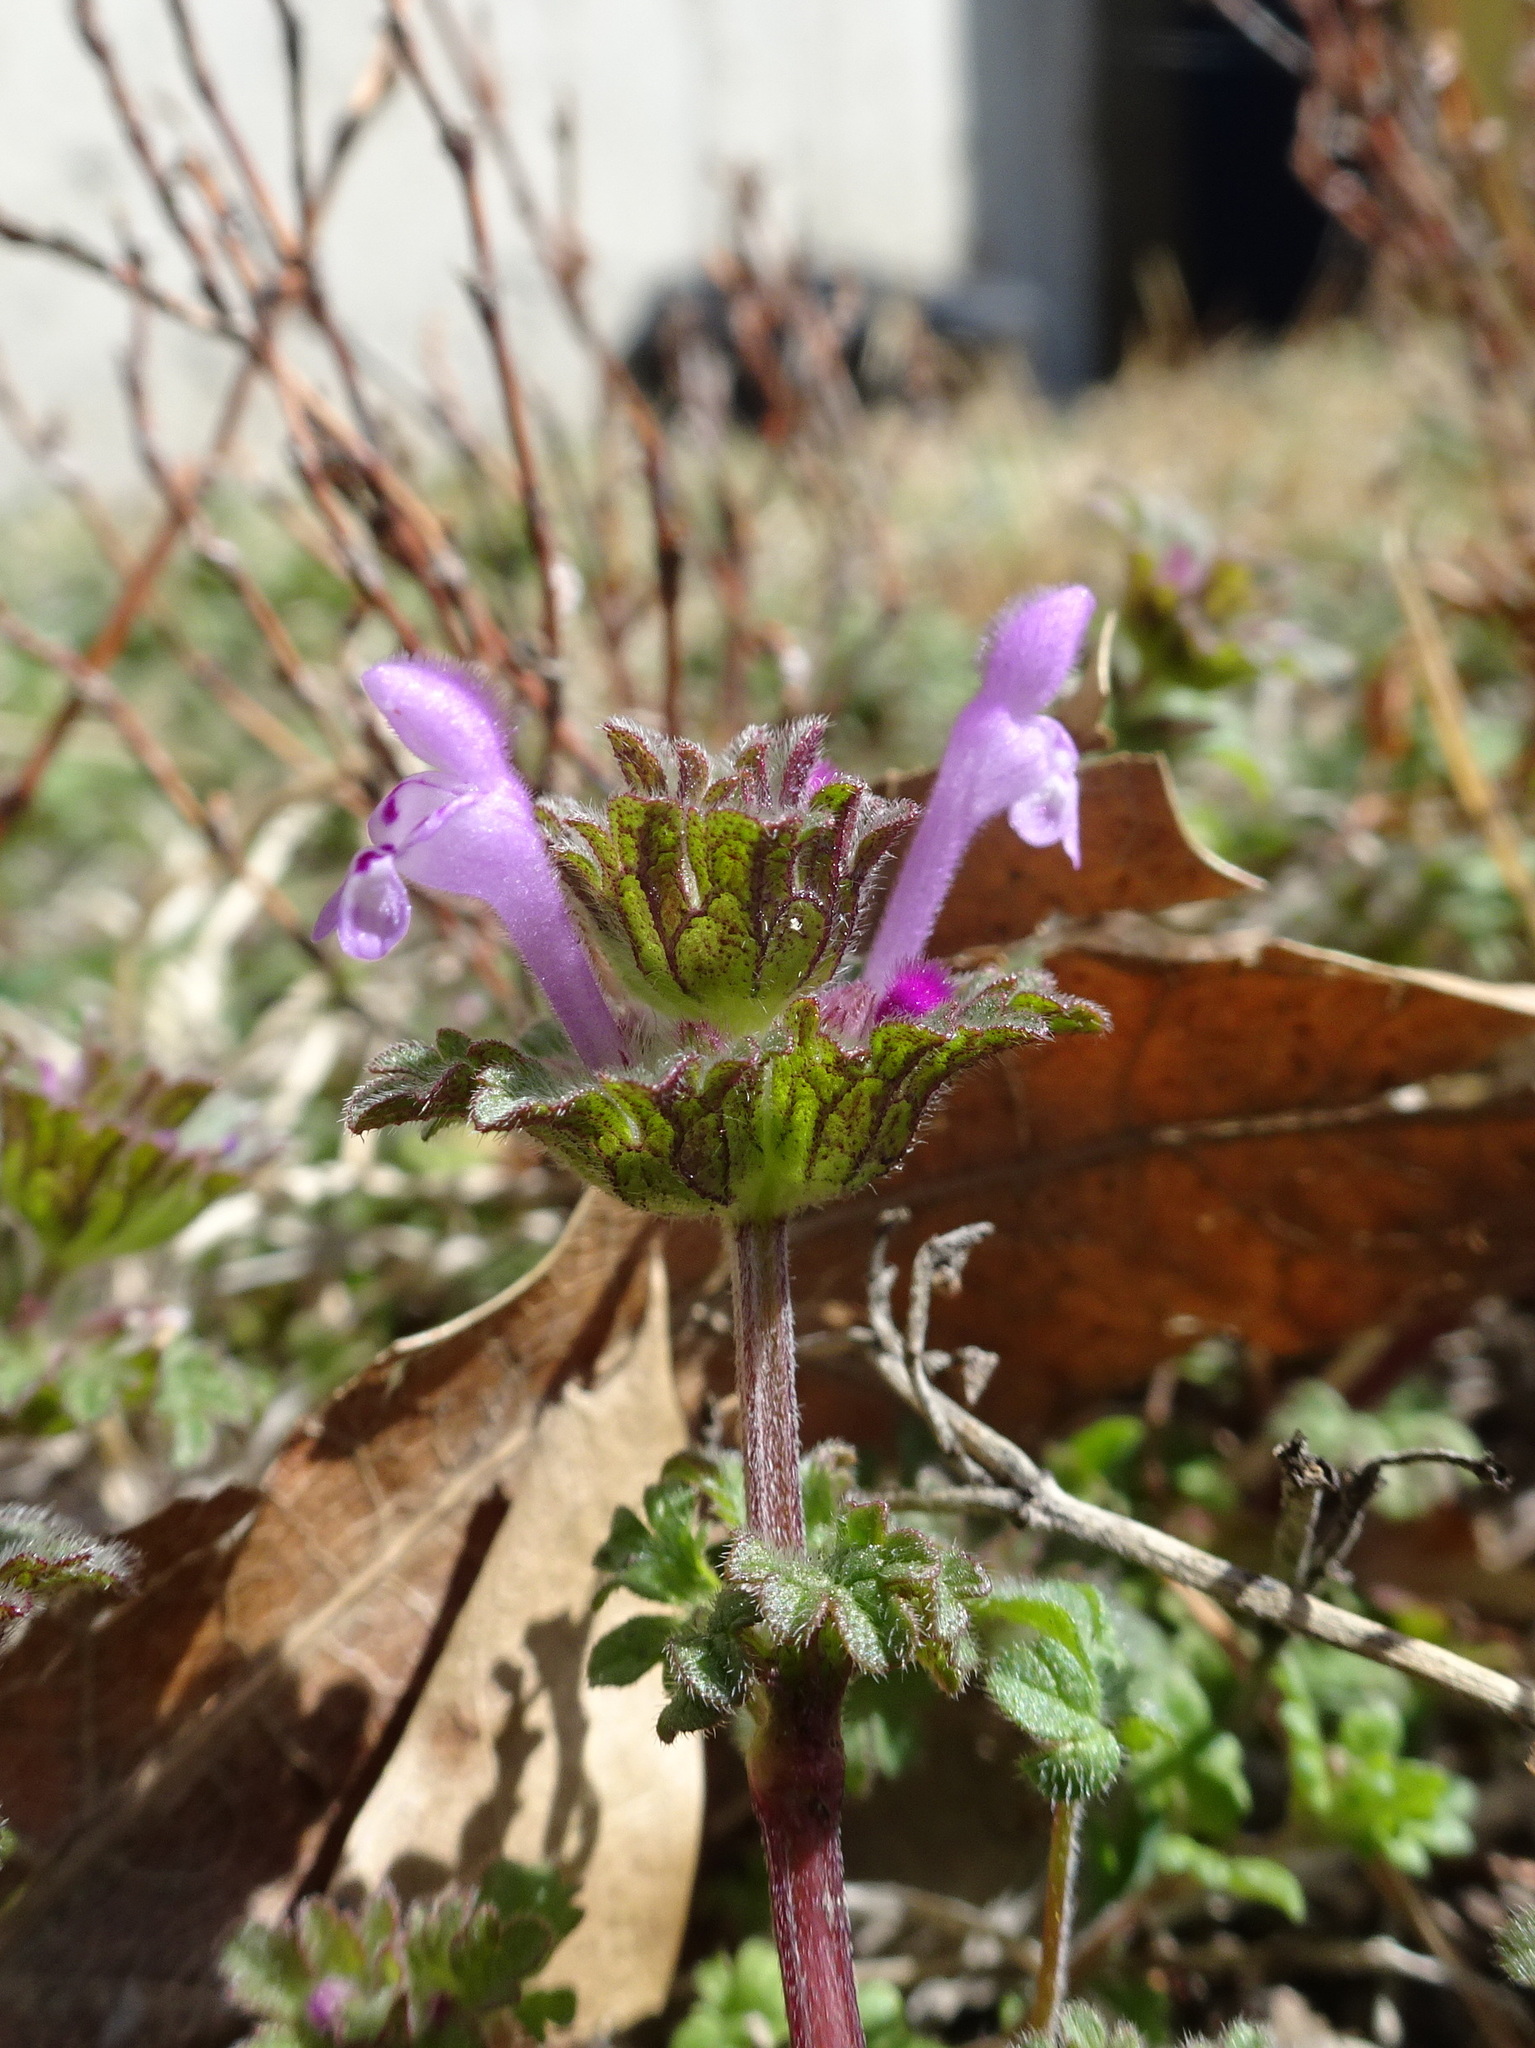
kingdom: Plantae
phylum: Tracheophyta
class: Magnoliopsida
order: Lamiales
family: Lamiaceae
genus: Lamium
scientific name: Lamium amplexicaule
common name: Henbit dead-nettle
